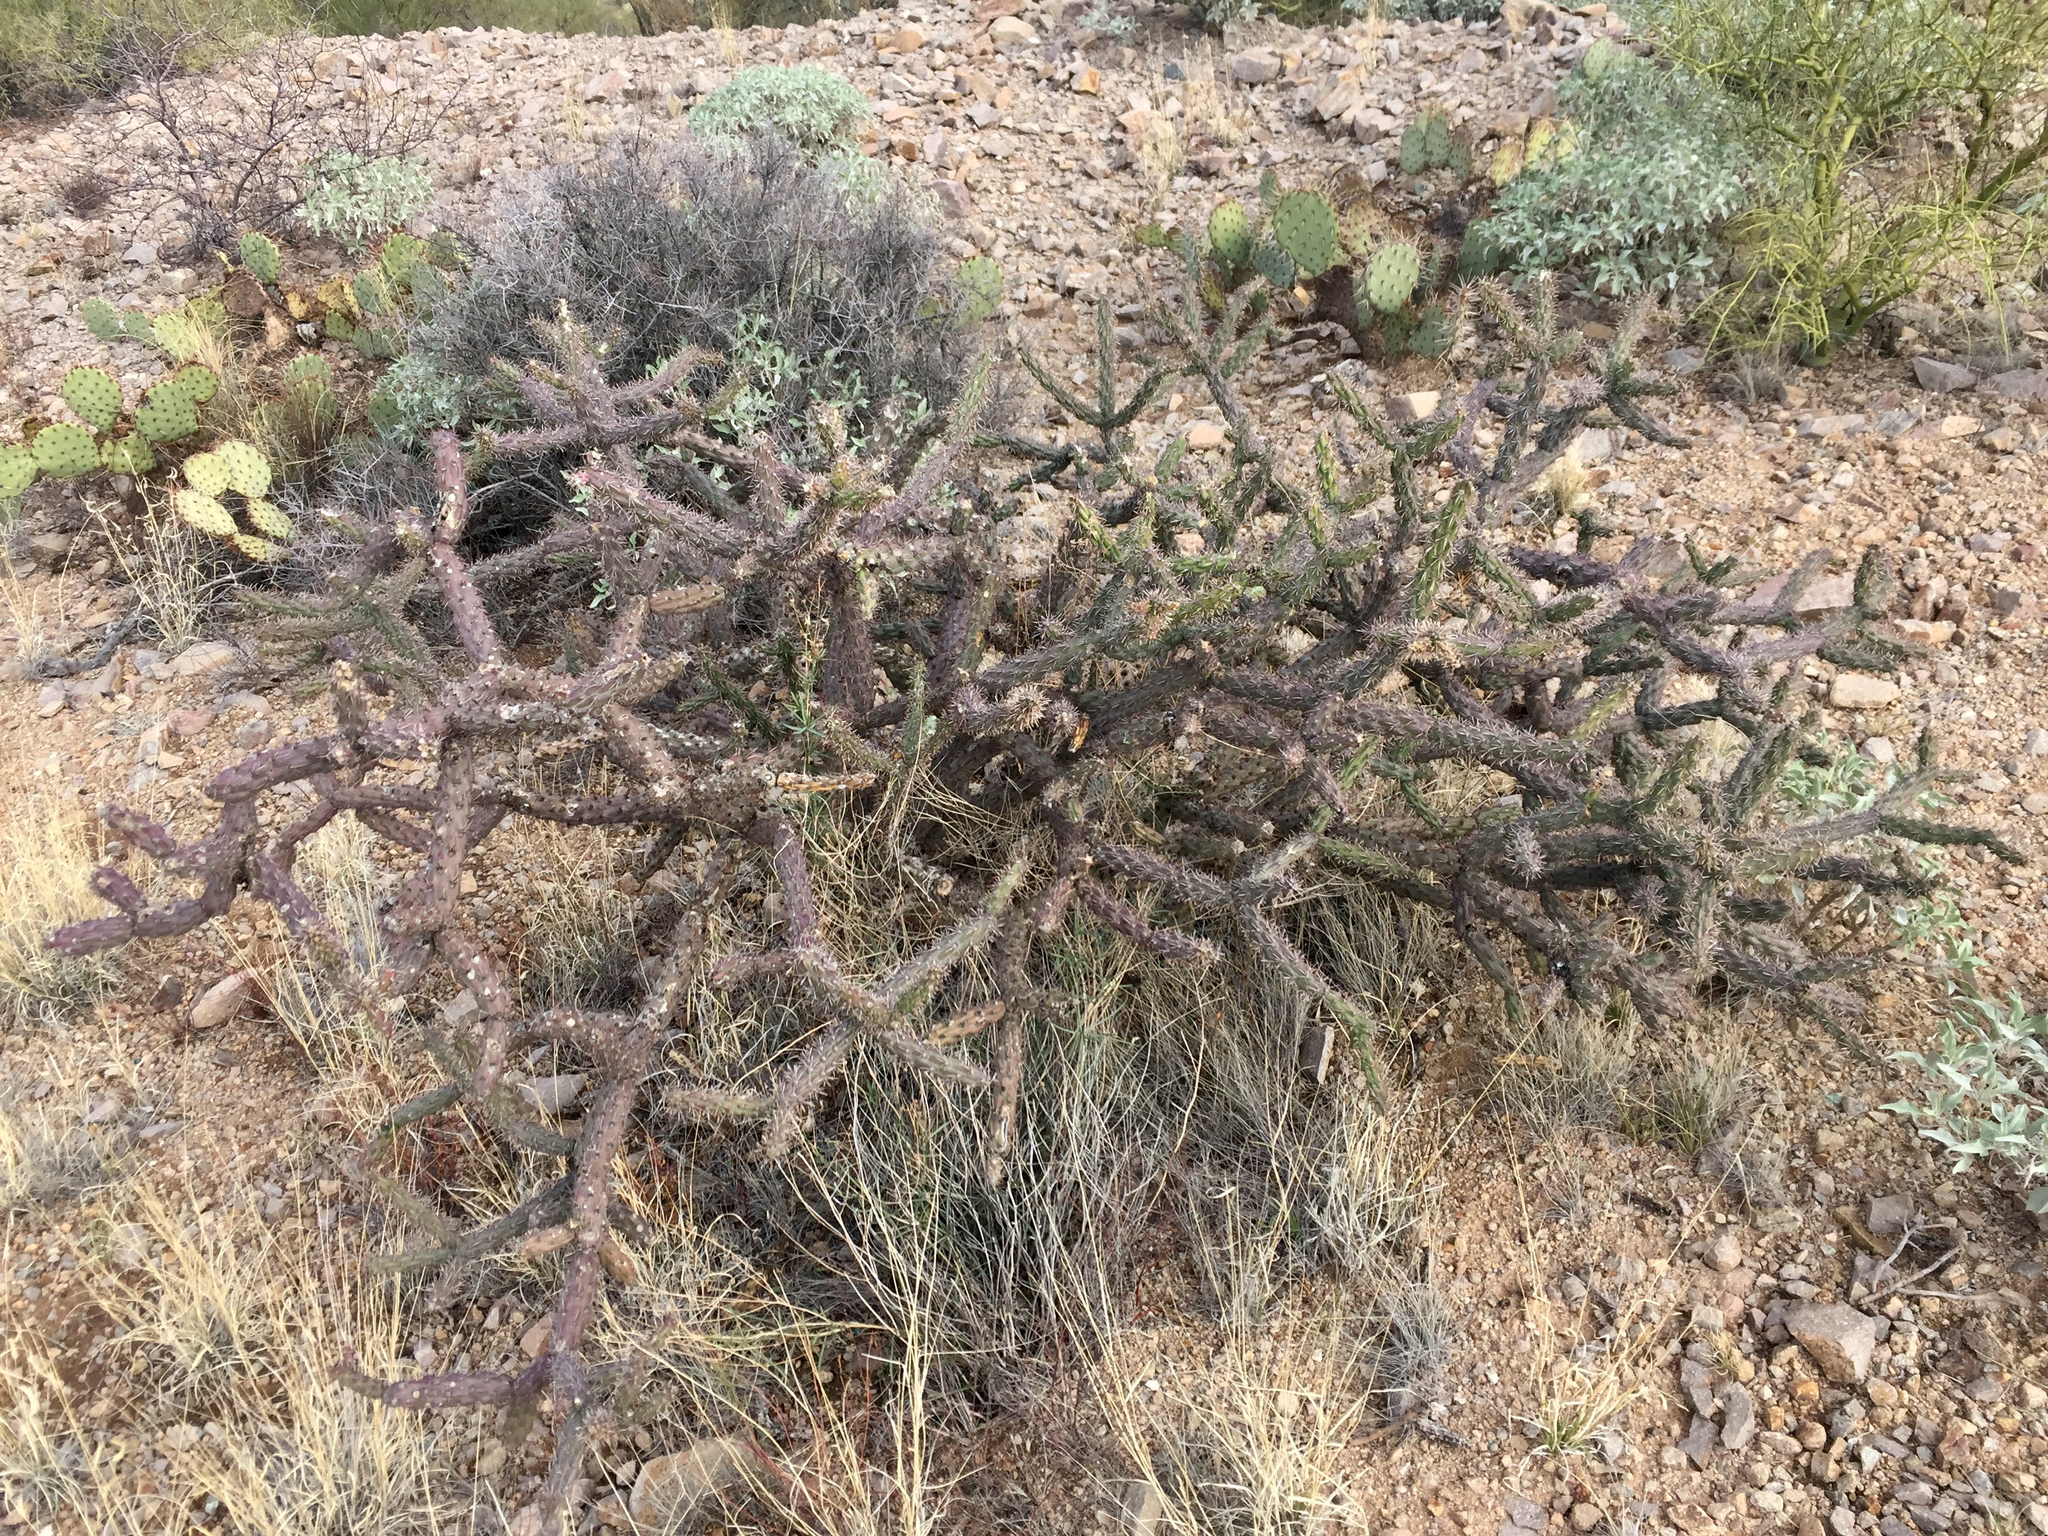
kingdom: Plantae
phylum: Tracheophyta
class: Magnoliopsida
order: Caryophyllales
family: Cactaceae
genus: Cylindropuntia
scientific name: Cylindropuntia thurberi
